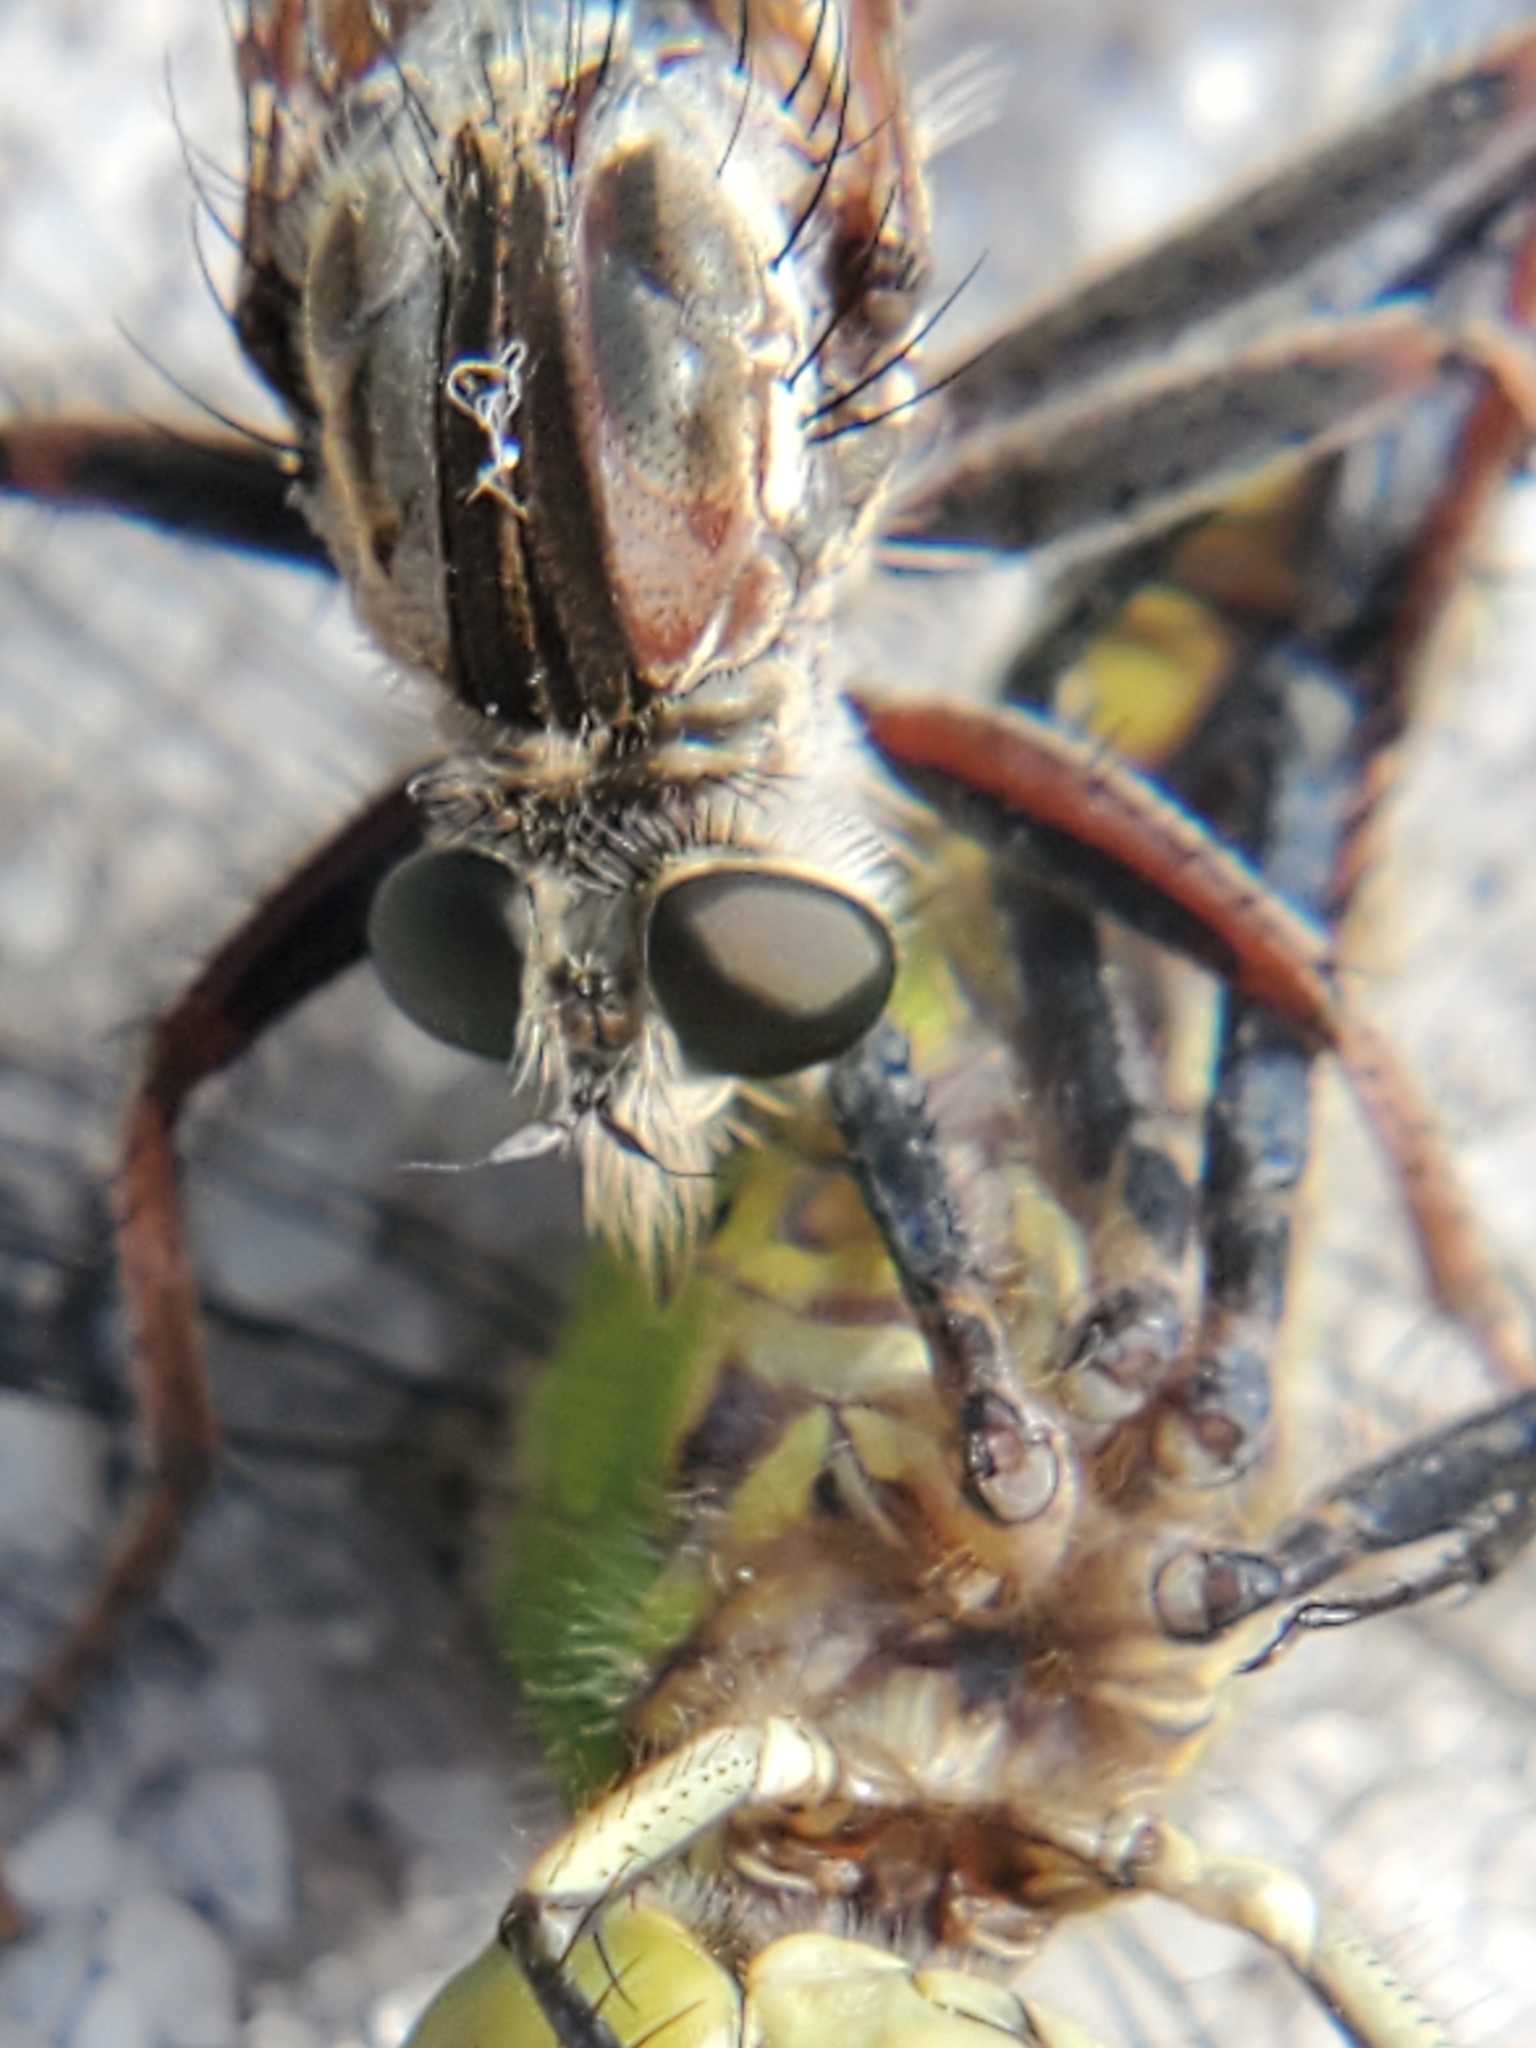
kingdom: Animalia
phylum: Arthropoda
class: Insecta
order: Odonata
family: Libellulidae
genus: Erythemis
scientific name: Erythemis simplicicollis
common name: Eastern pondhawk
